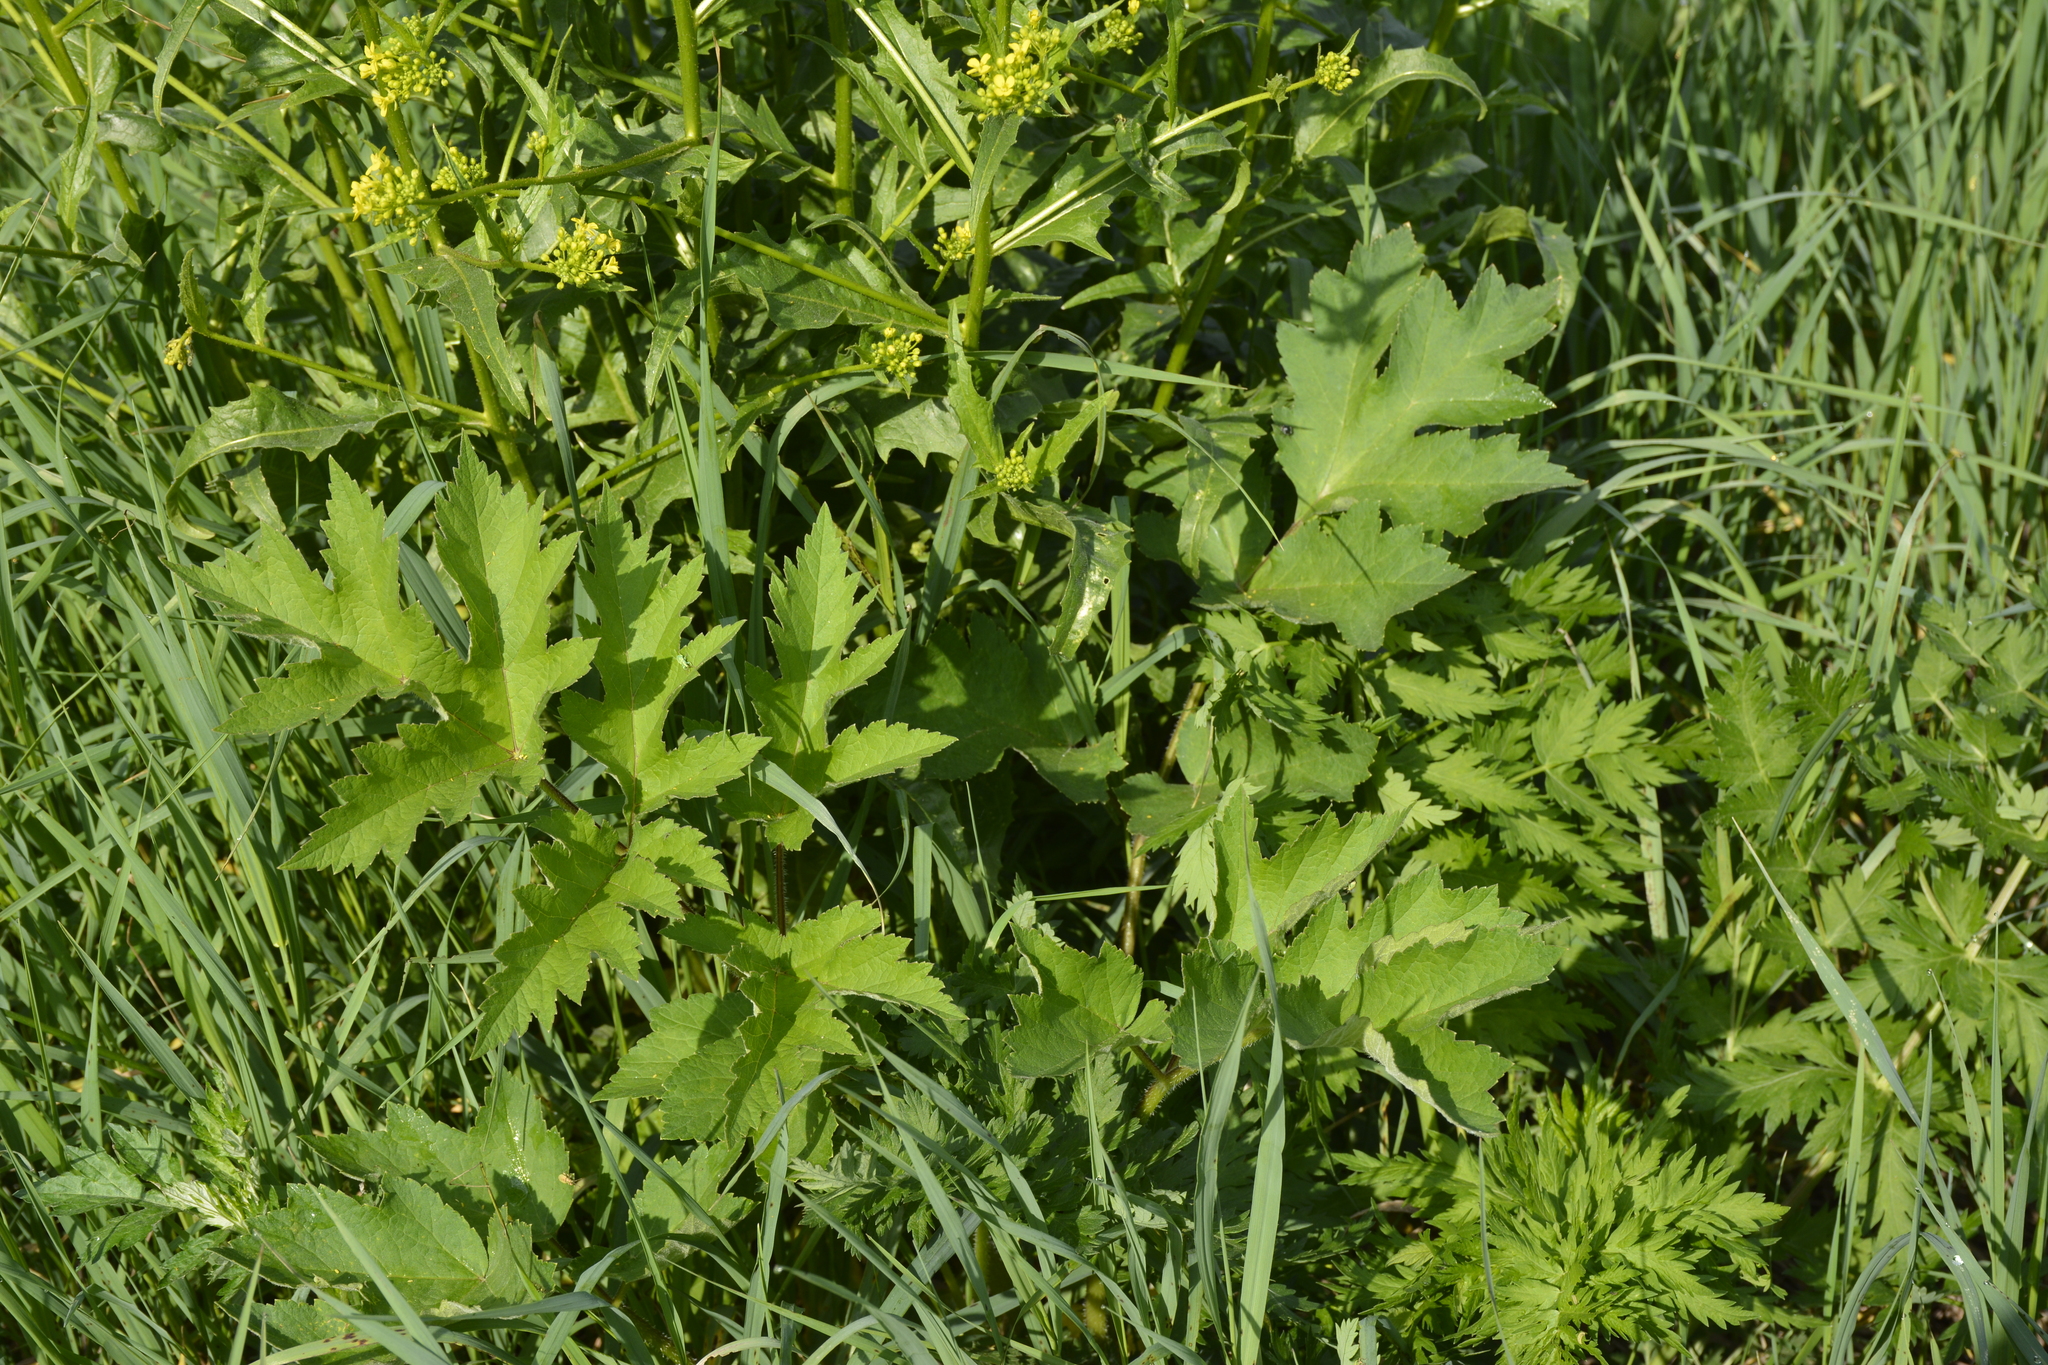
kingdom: Plantae
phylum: Tracheophyta
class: Magnoliopsida
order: Apiales
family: Apiaceae
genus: Heracleum
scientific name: Heracleum sphondylium
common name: Hogweed
